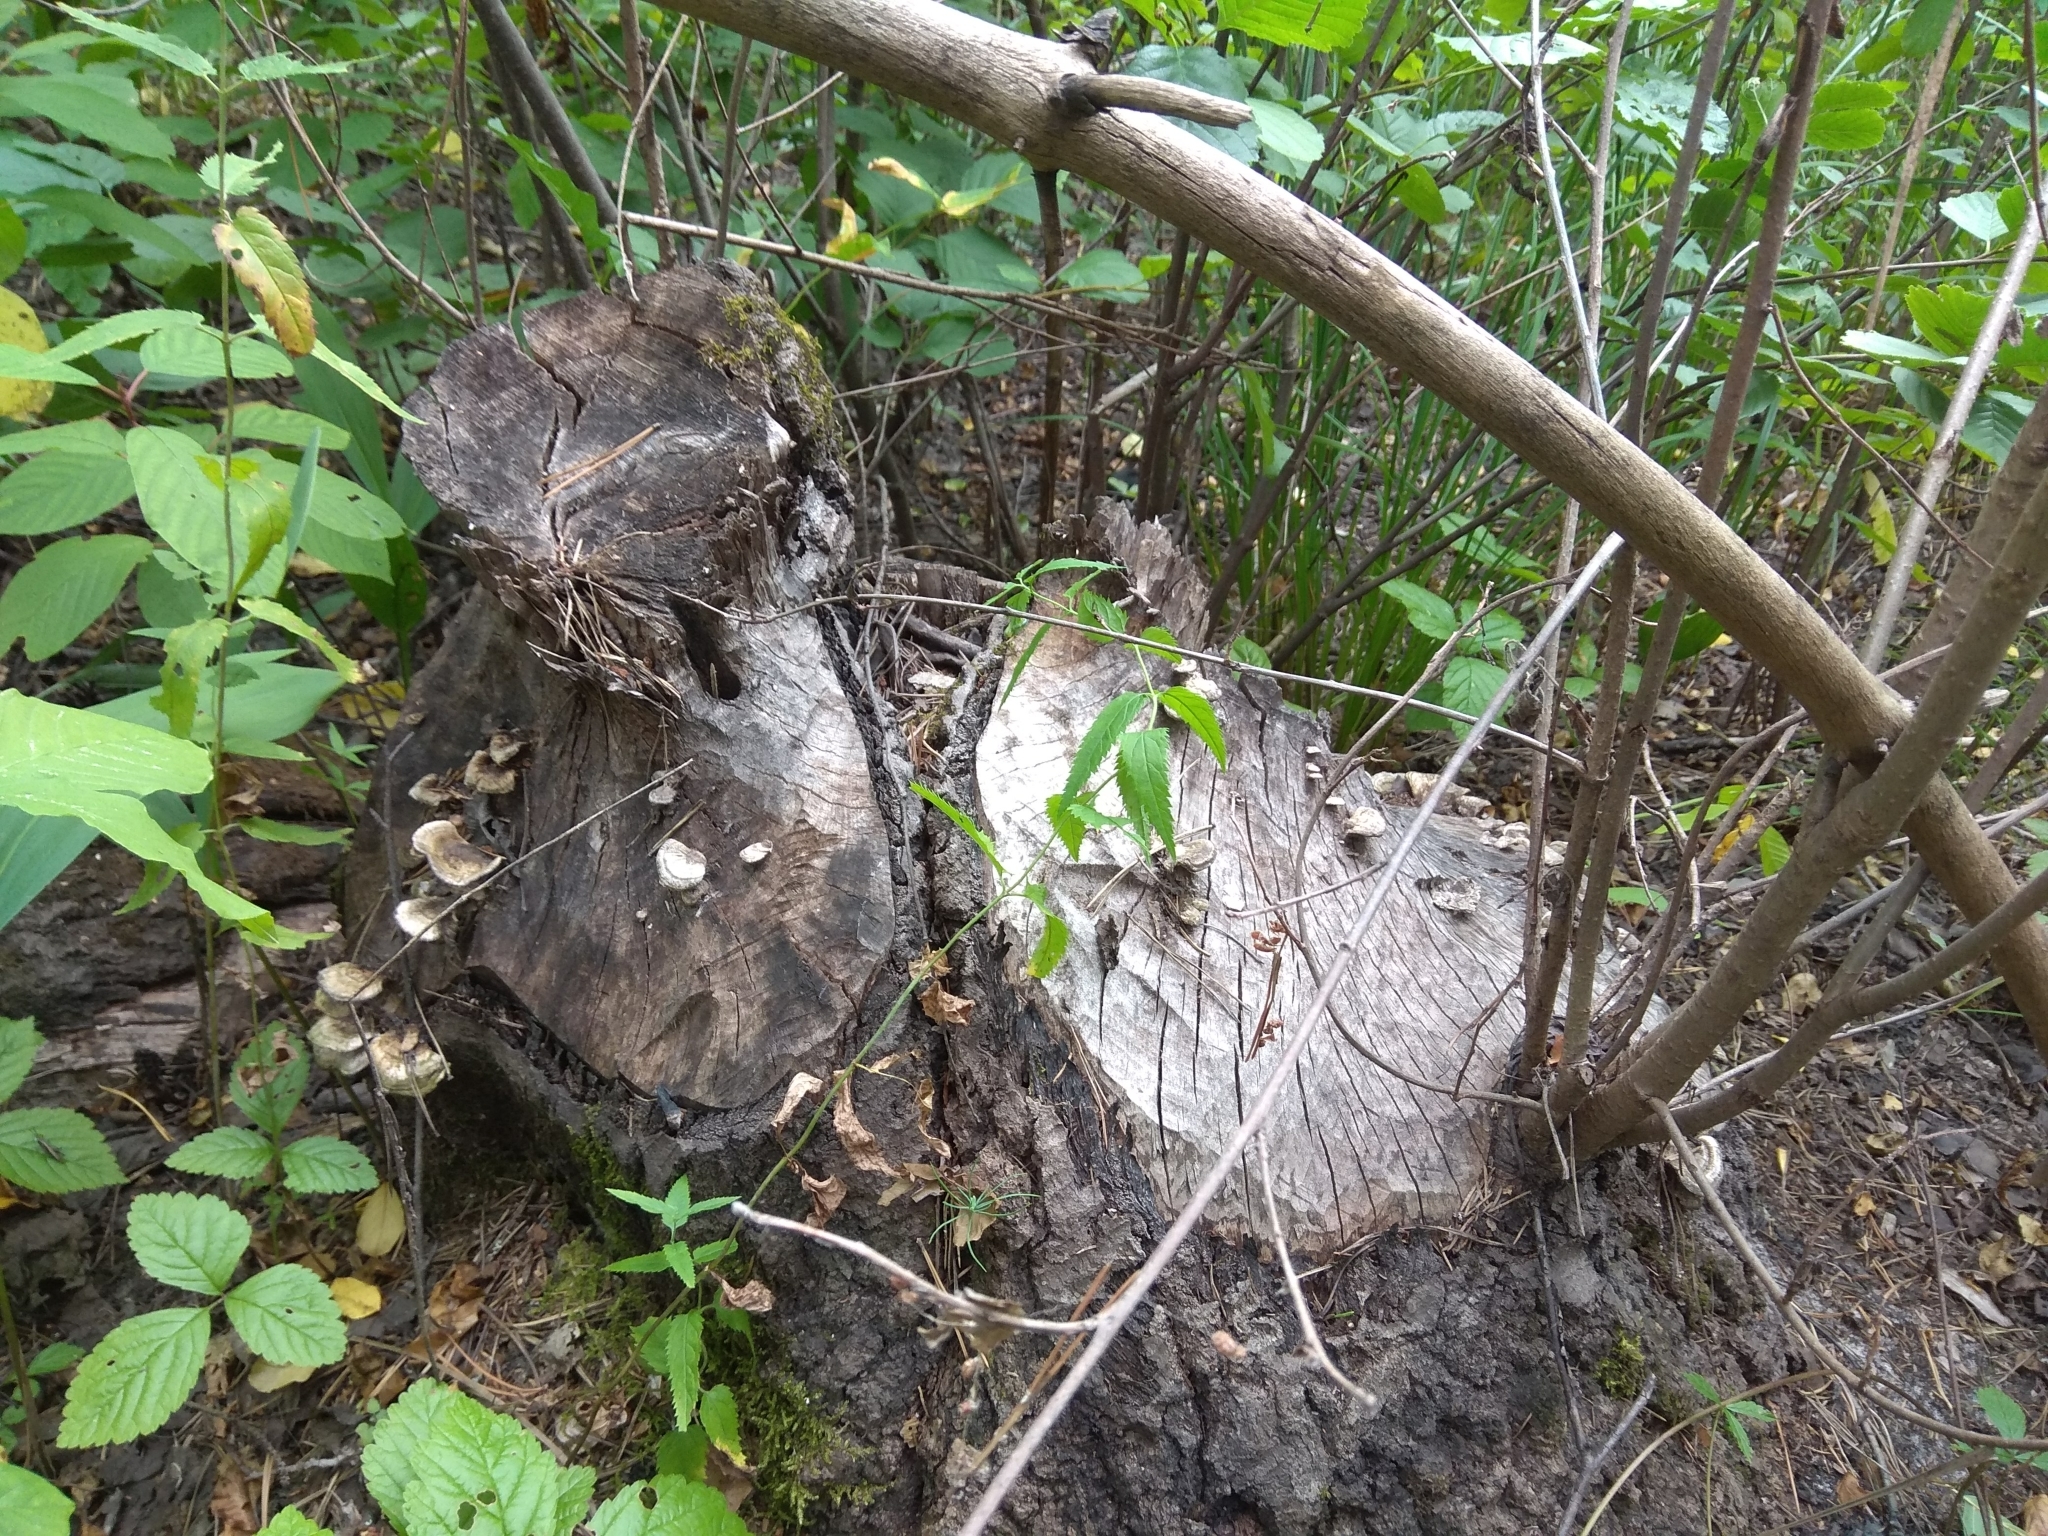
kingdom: Animalia
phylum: Chordata
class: Mammalia
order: Rodentia
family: Castoridae
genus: Castor
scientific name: Castor fiber
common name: Eurasian beaver
